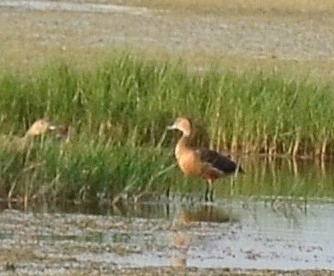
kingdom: Animalia
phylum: Chordata
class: Aves
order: Anseriformes
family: Anatidae
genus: Dendrocygna
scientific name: Dendrocygna javanica
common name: Lesser whistling-duck
